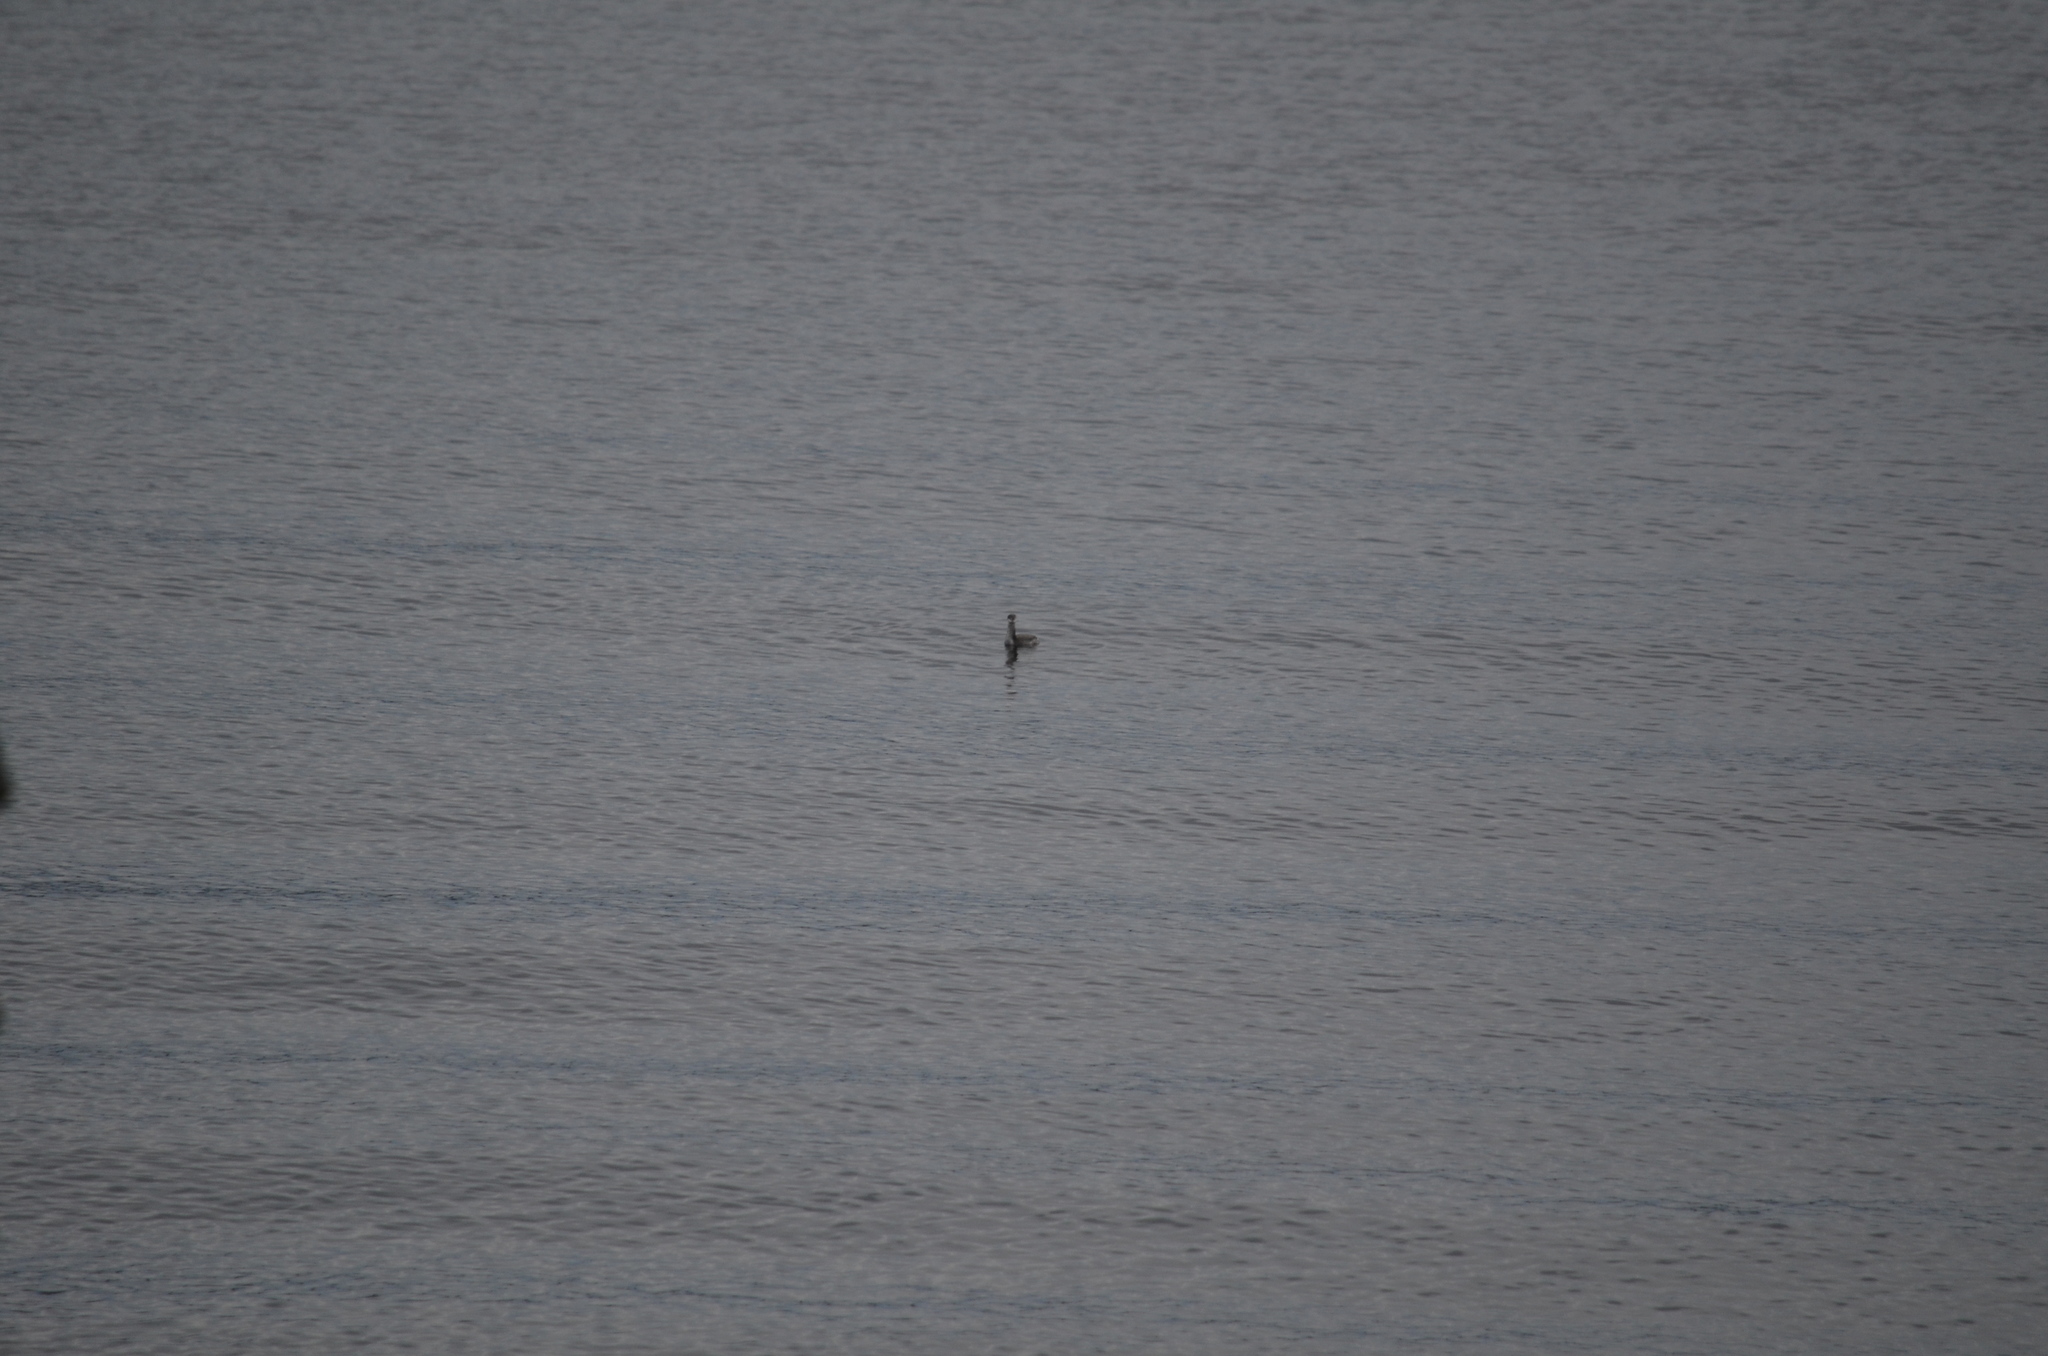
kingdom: Animalia
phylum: Chordata
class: Aves
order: Podicipediformes
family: Podicipedidae
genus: Podiceps
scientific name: Podiceps auritus
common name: Horned grebe
